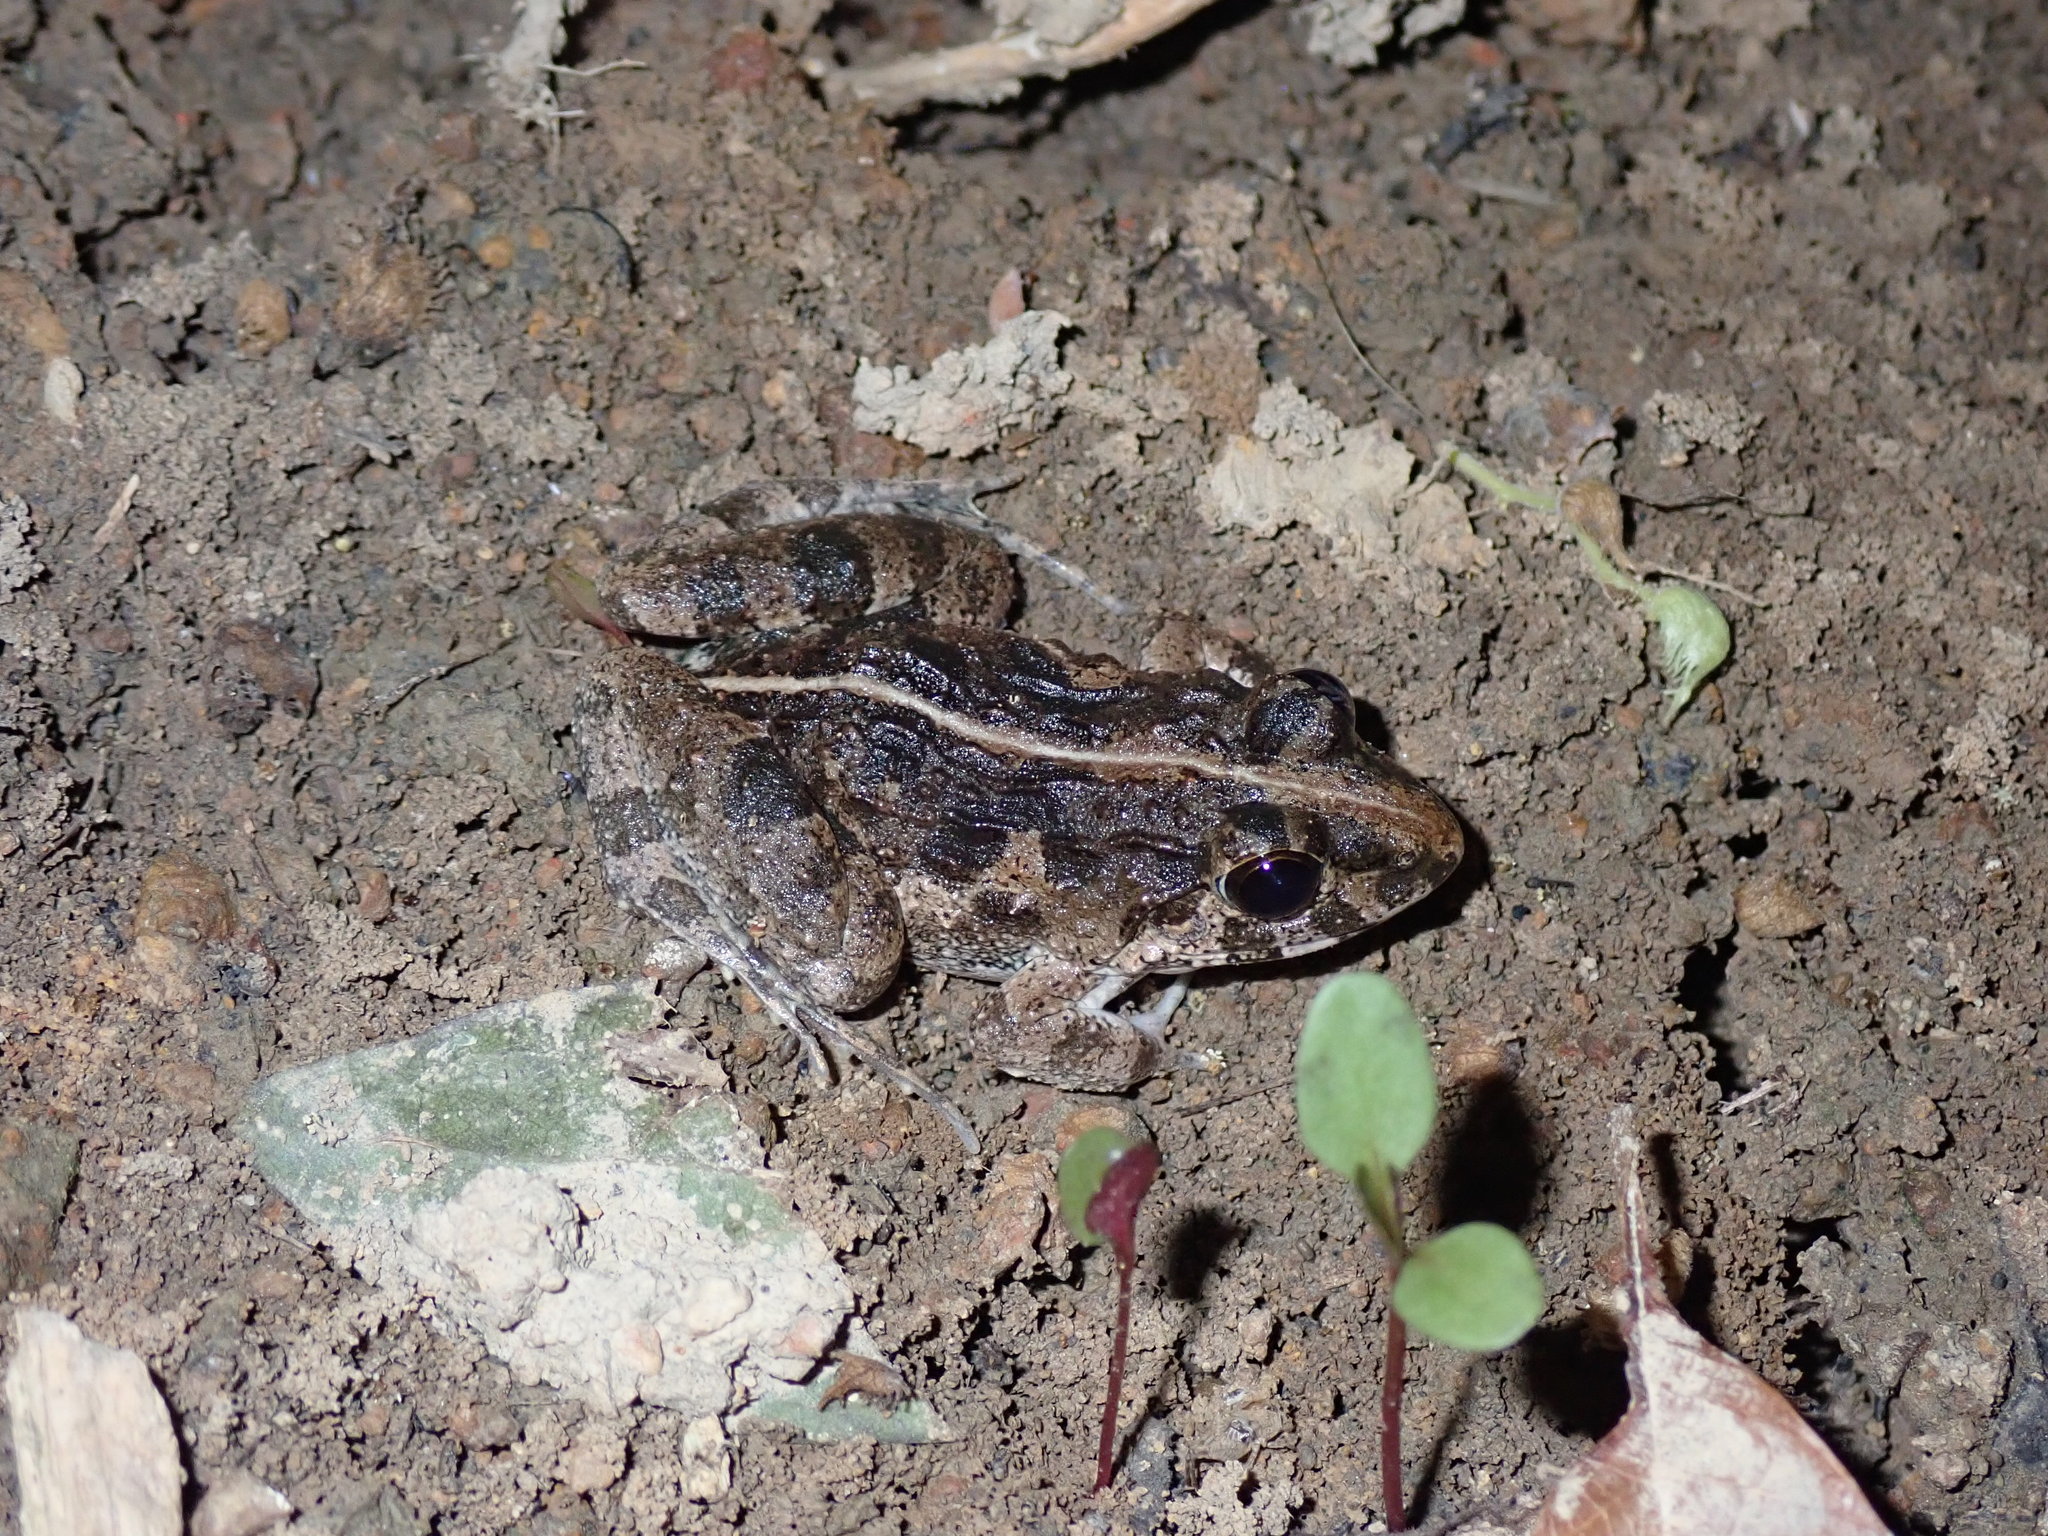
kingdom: Animalia
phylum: Chordata
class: Amphibia
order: Anura
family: Dicroglossidae
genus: Fejervarya
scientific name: Fejervarya limnocharis
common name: Asian grass frog/common pond frog/field frog/grass frog/indian rice frog
